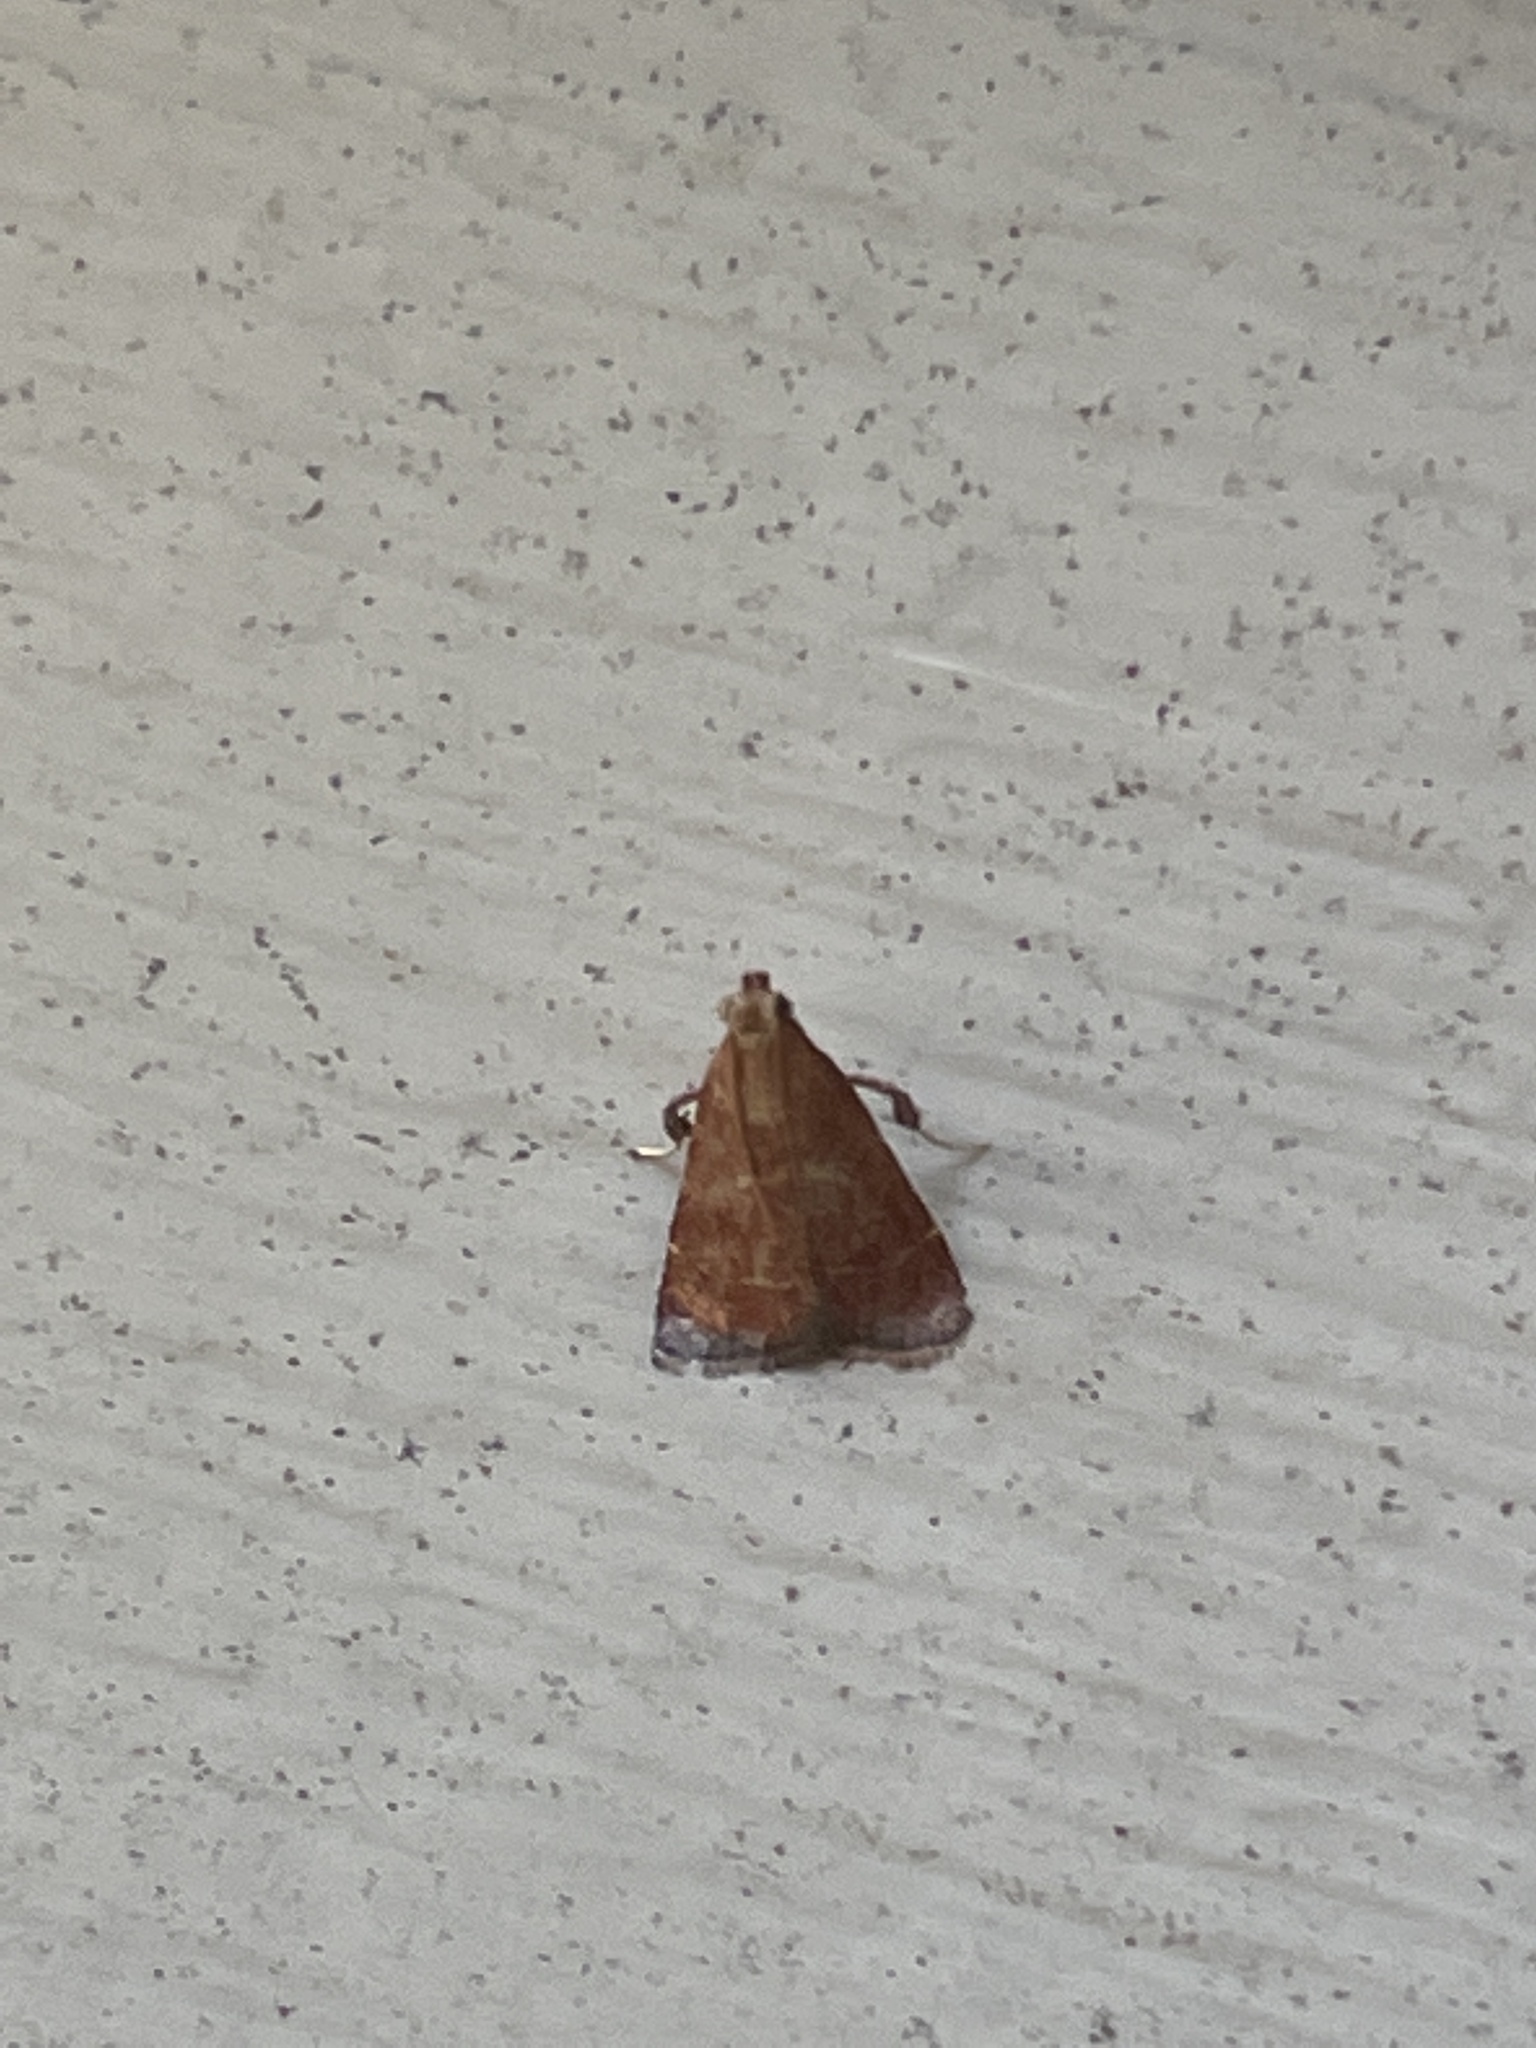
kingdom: Animalia
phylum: Arthropoda
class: Insecta
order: Lepidoptera
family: Pyralidae
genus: Arta
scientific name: Arta statalis
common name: Posturing arta moth
